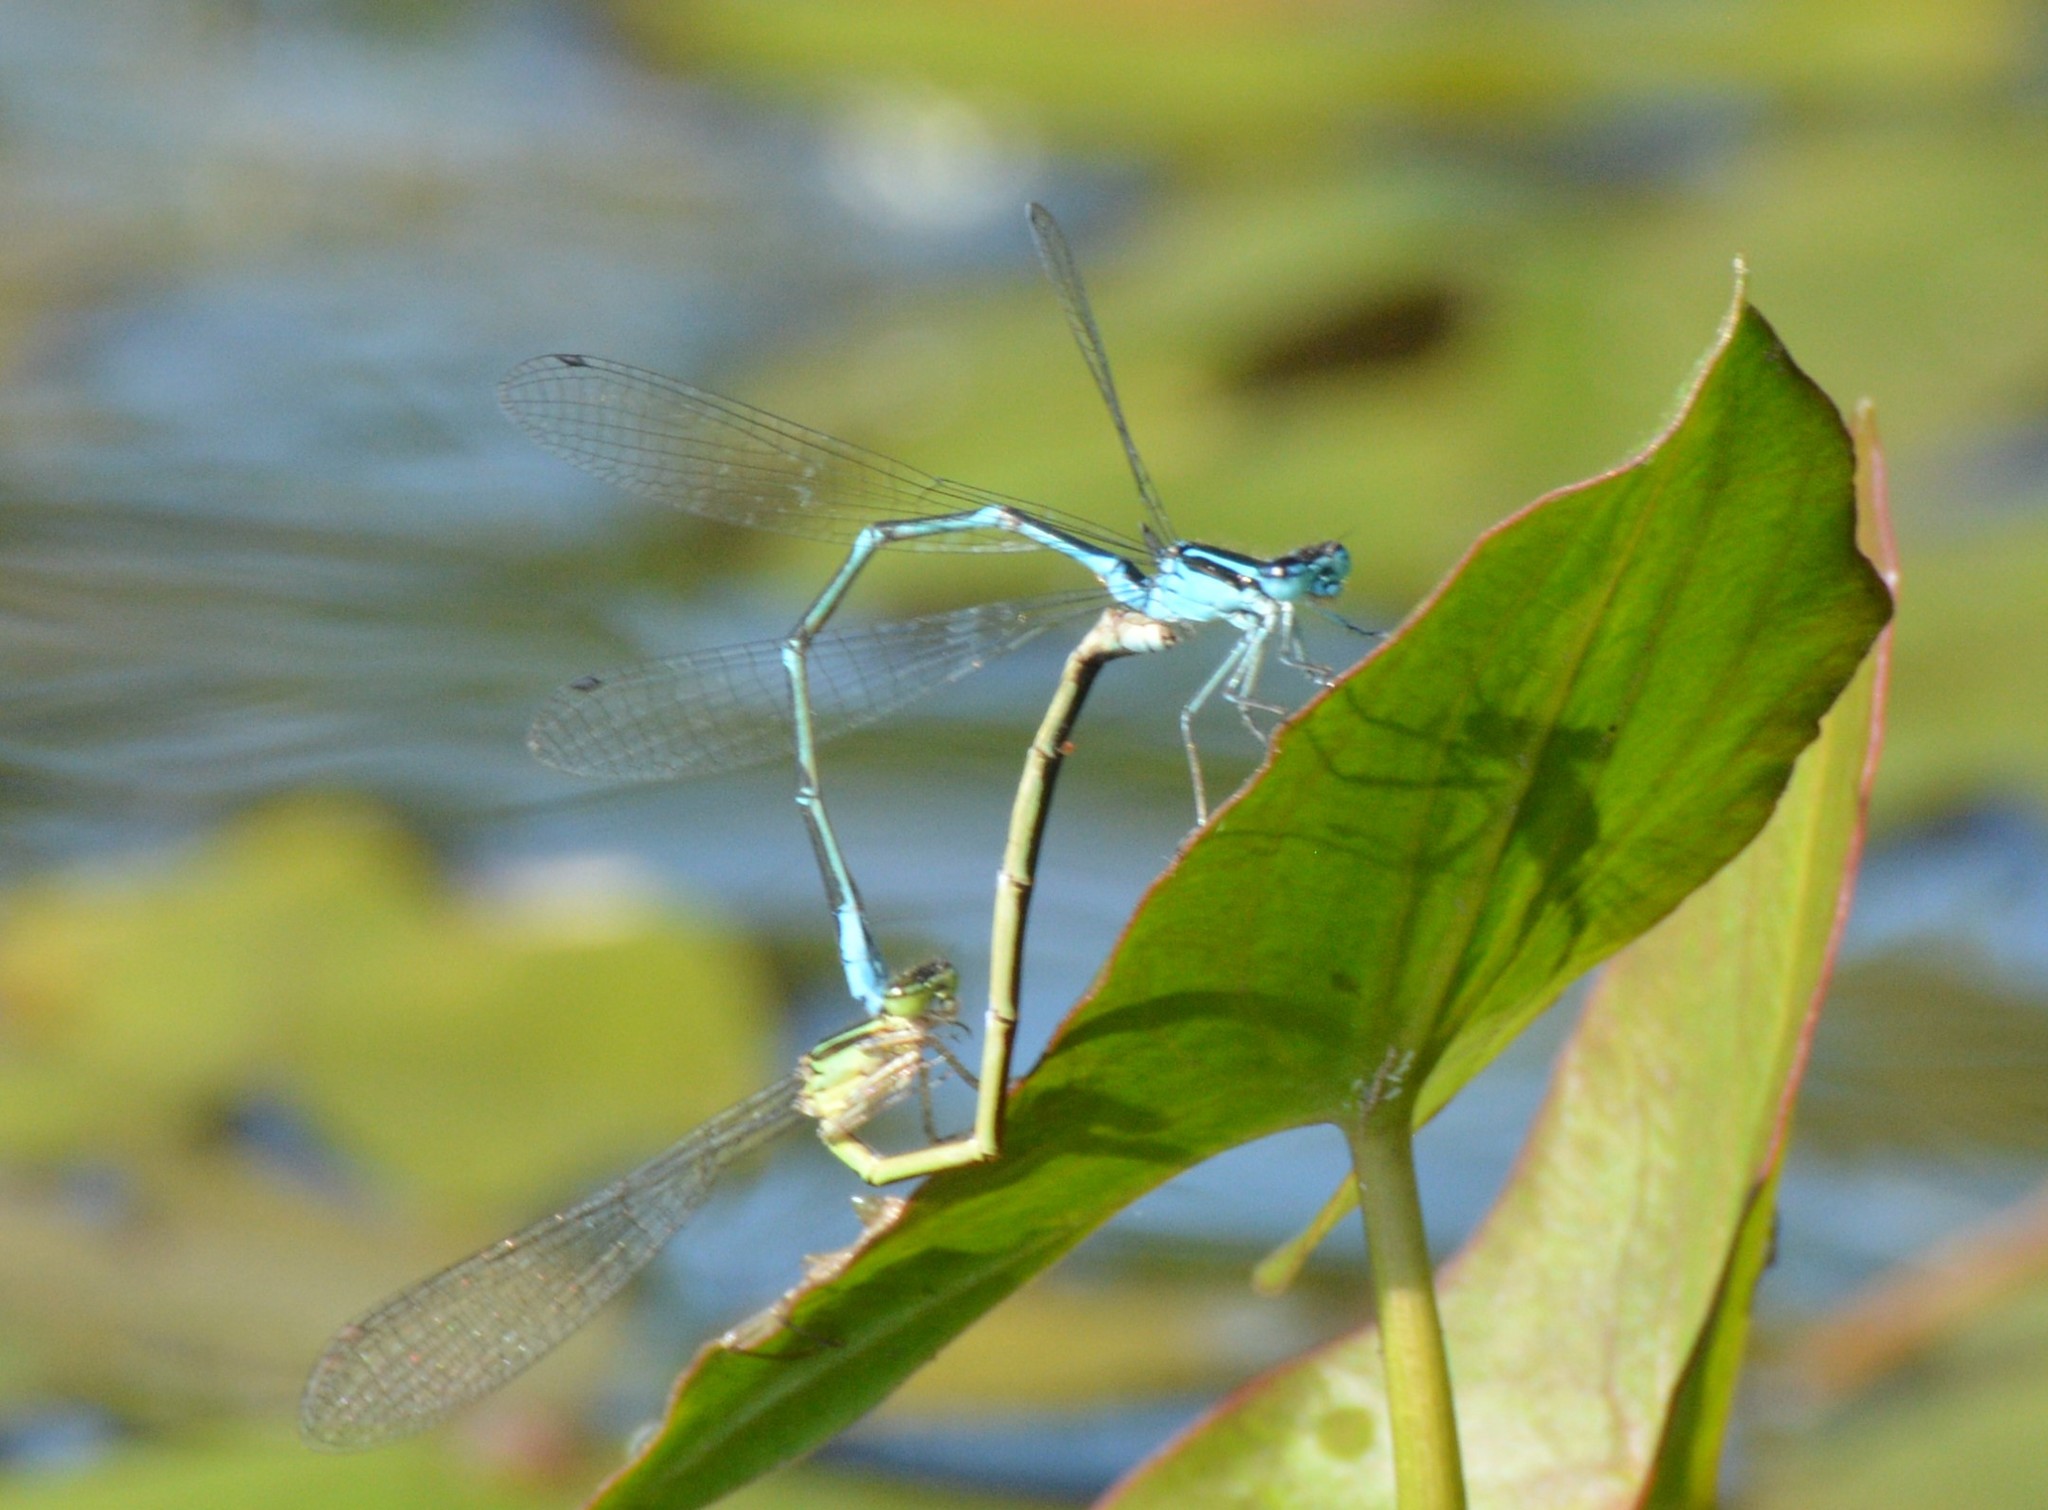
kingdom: Animalia
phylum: Arthropoda
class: Insecta
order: Odonata
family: Coenagrionidae
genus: Enallagma
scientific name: Enallagma exsulans
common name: Stream bluet
